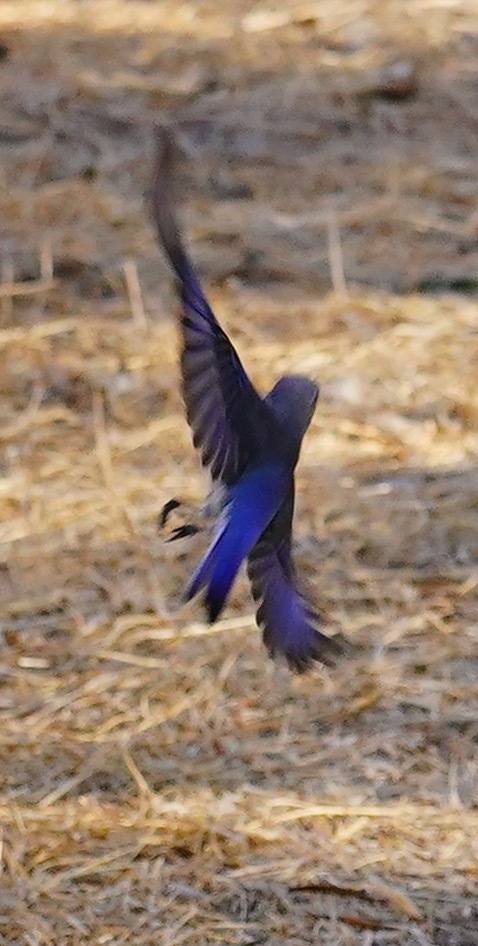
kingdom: Animalia
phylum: Chordata
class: Aves
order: Passeriformes
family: Turdidae
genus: Sialia
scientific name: Sialia mexicana
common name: Western bluebird
